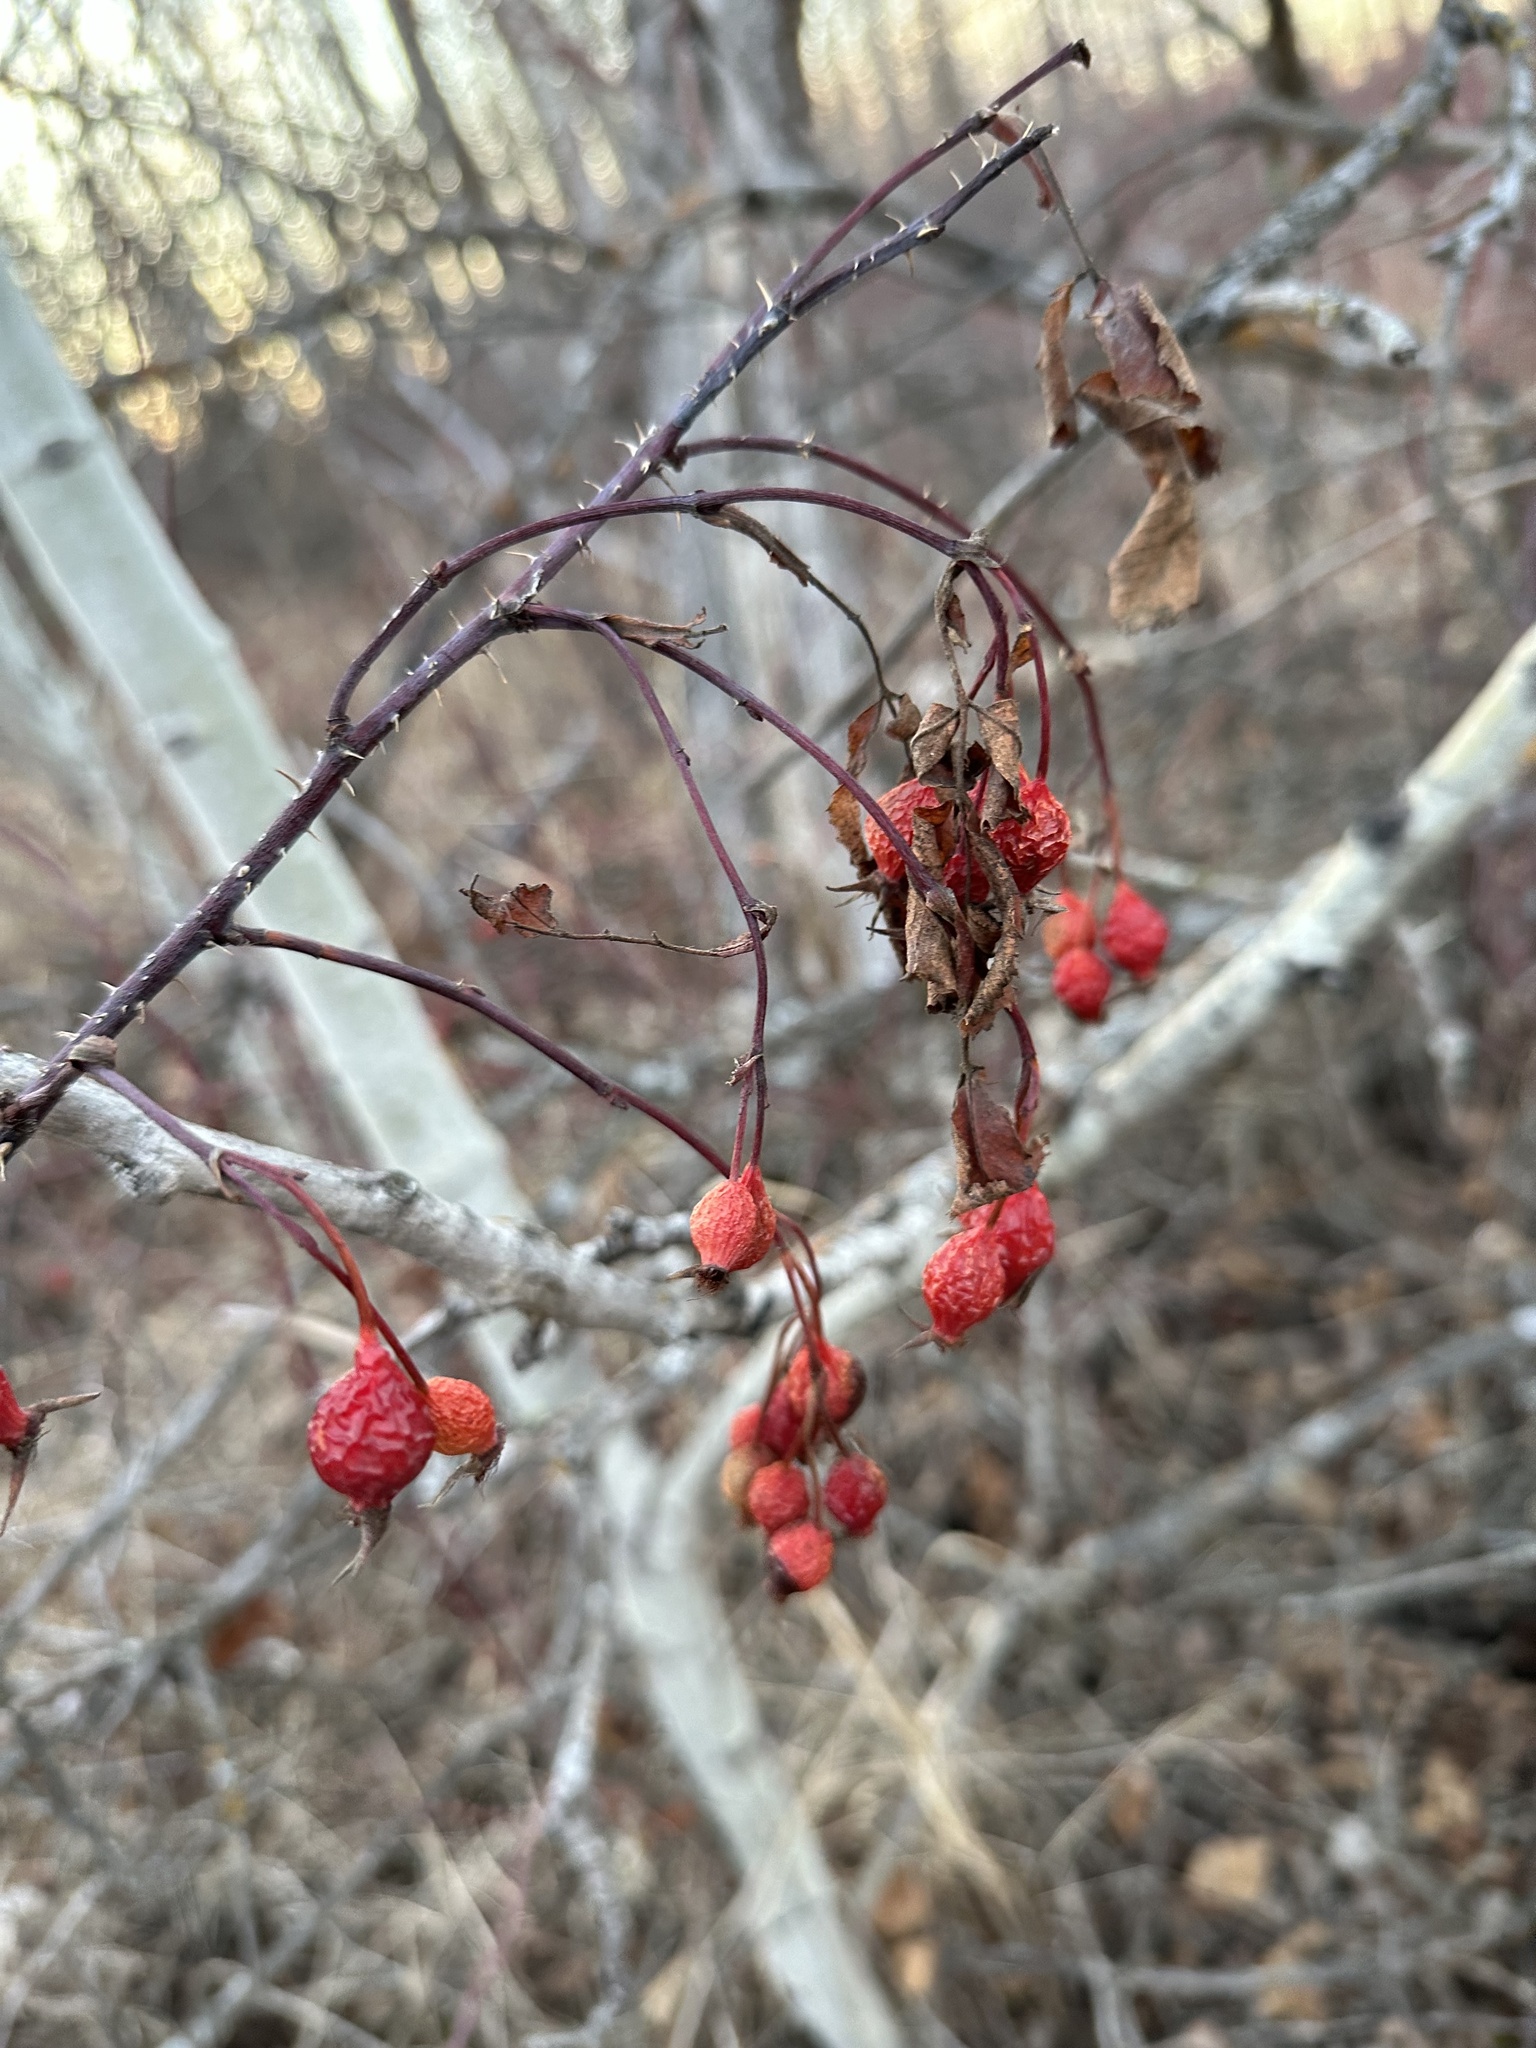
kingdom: Plantae
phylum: Tracheophyta
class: Magnoliopsida
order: Rosales
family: Rosaceae
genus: Rosa
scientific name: Rosa woodsii
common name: Woods's rose
